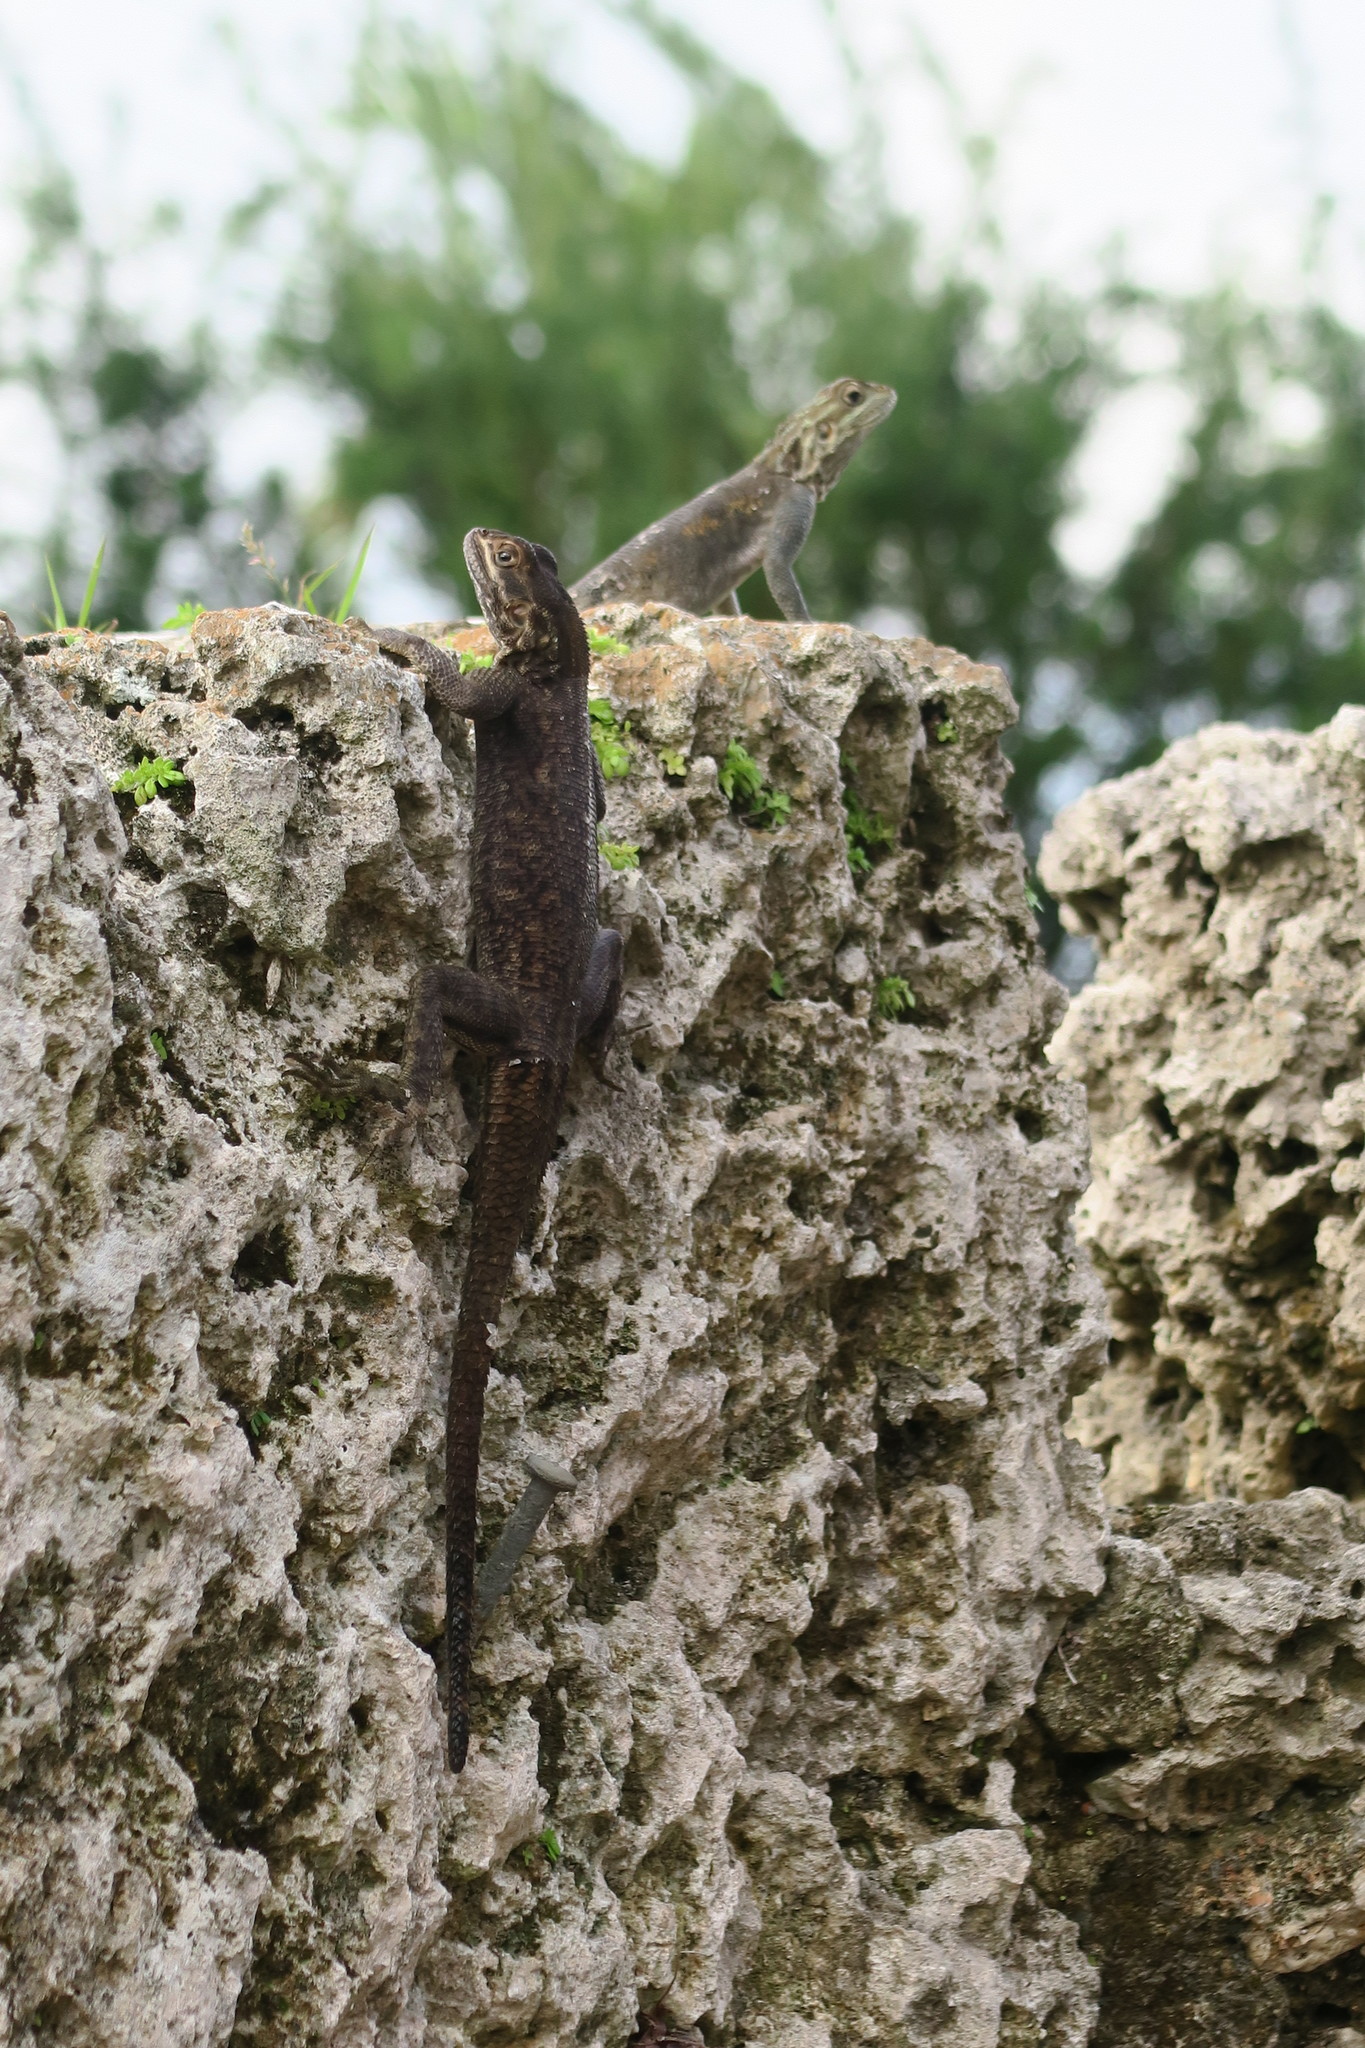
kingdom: Animalia
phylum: Chordata
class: Squamata
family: Agamidae
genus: Agama
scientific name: Agama picticauda
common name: Red-headed agama
